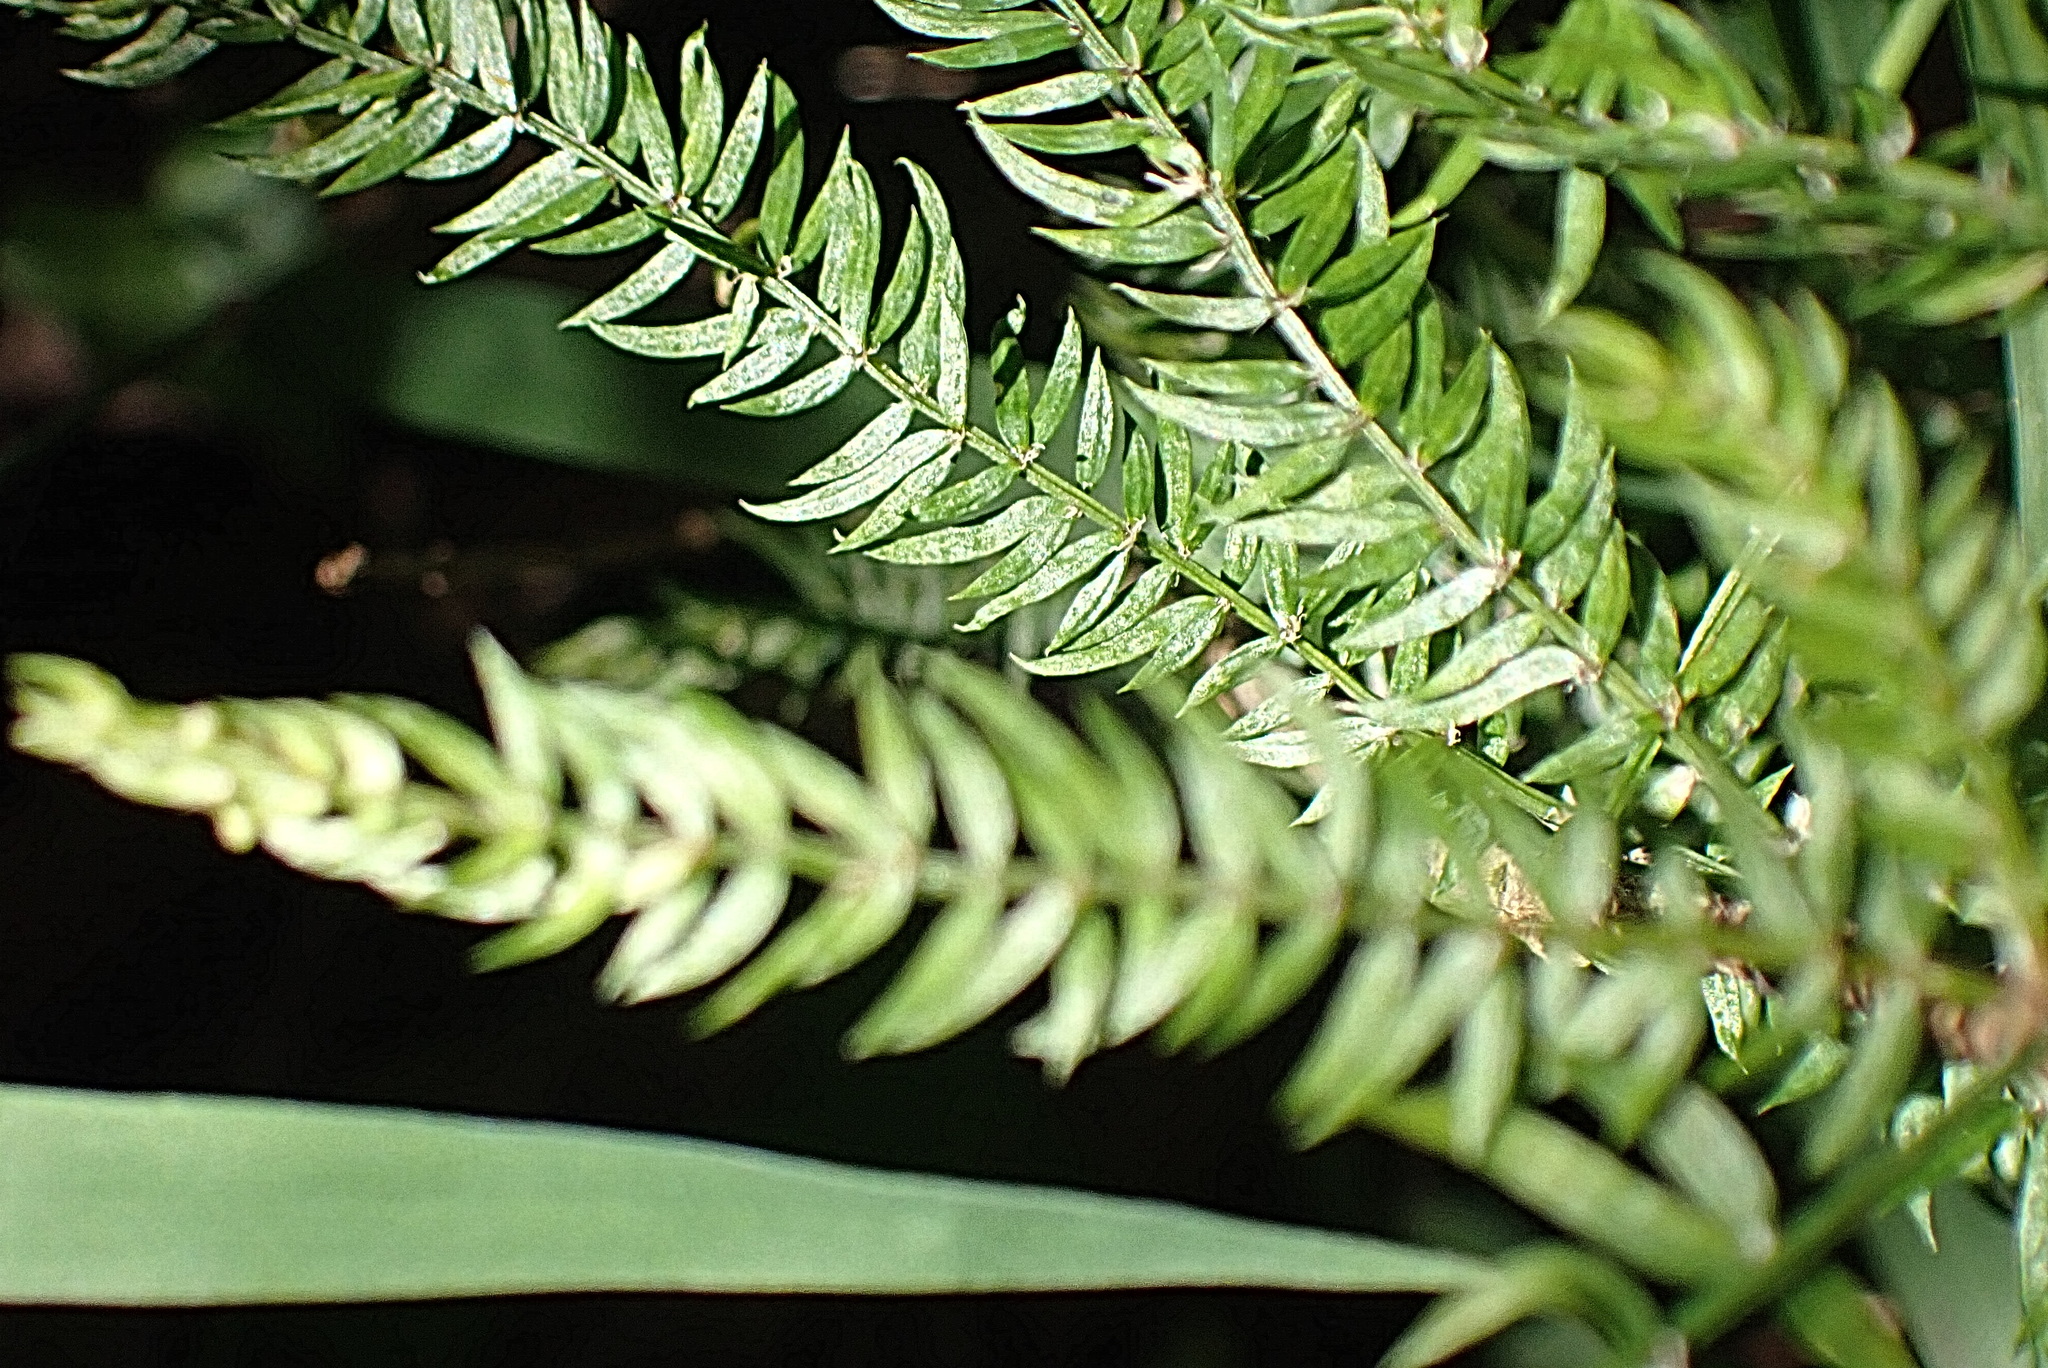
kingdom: Plantae
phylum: Tracheophyta
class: Liliopsida
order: Asparagales
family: Asparagaceae
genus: Asparagus
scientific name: Asparagus scandens
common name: Asparagus-fern
